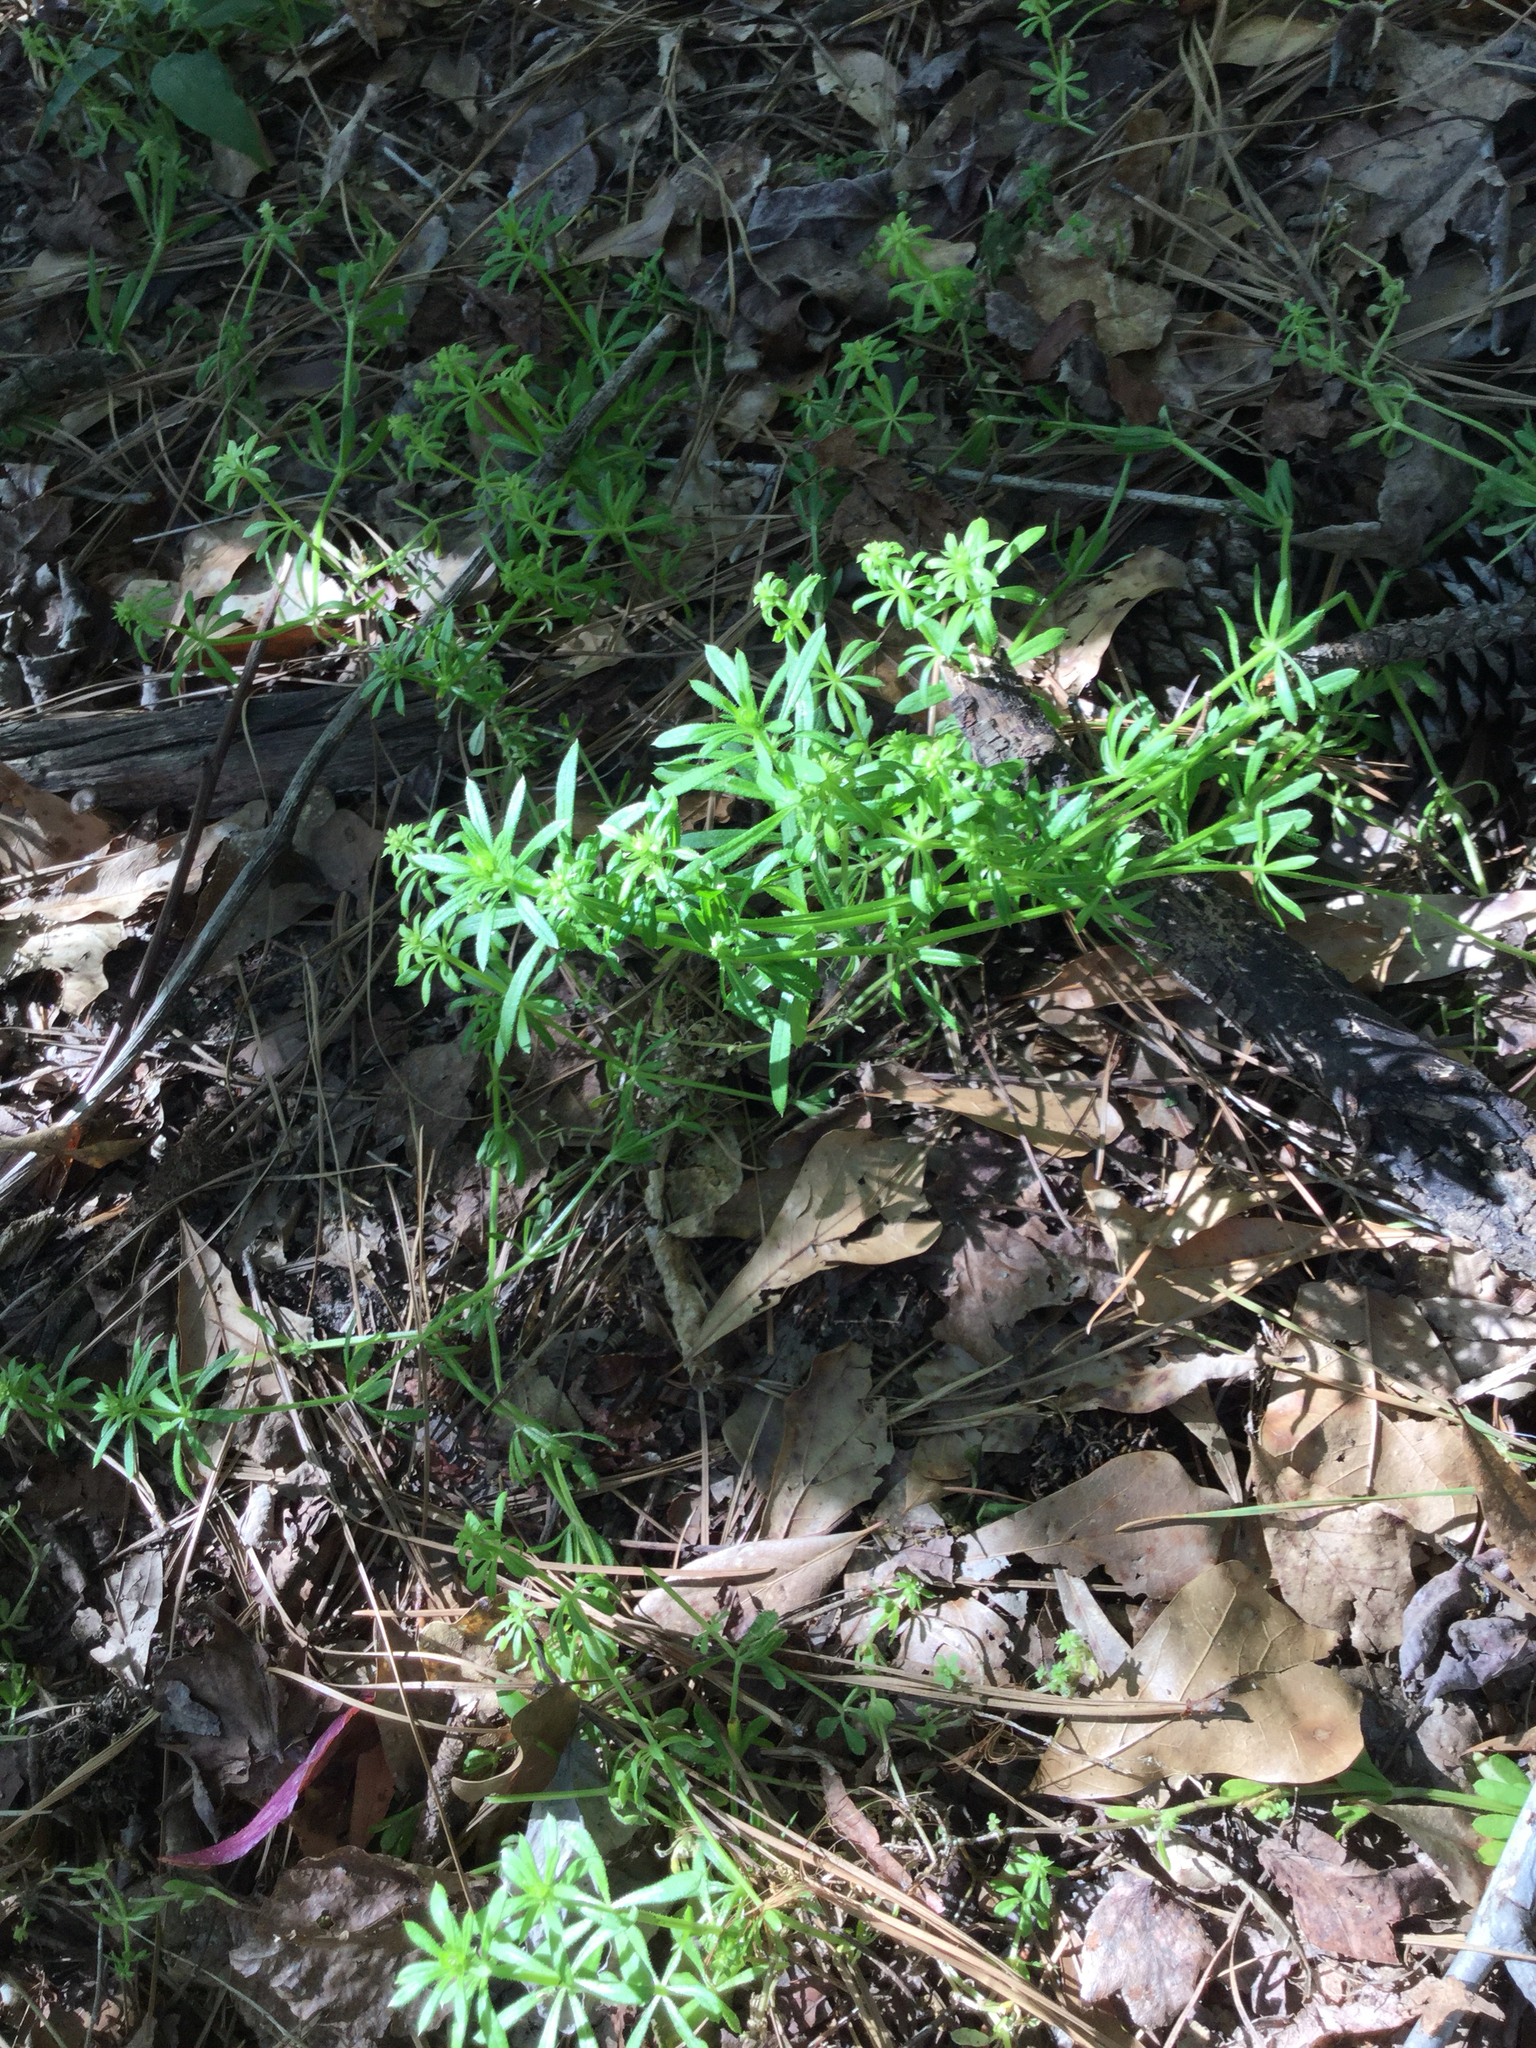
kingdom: Plantae
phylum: Tracheophyta
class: Magnoliopsida
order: Gentianales
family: Rubiaceae
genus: Galium
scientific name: Galium aparine
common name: Cleavers
